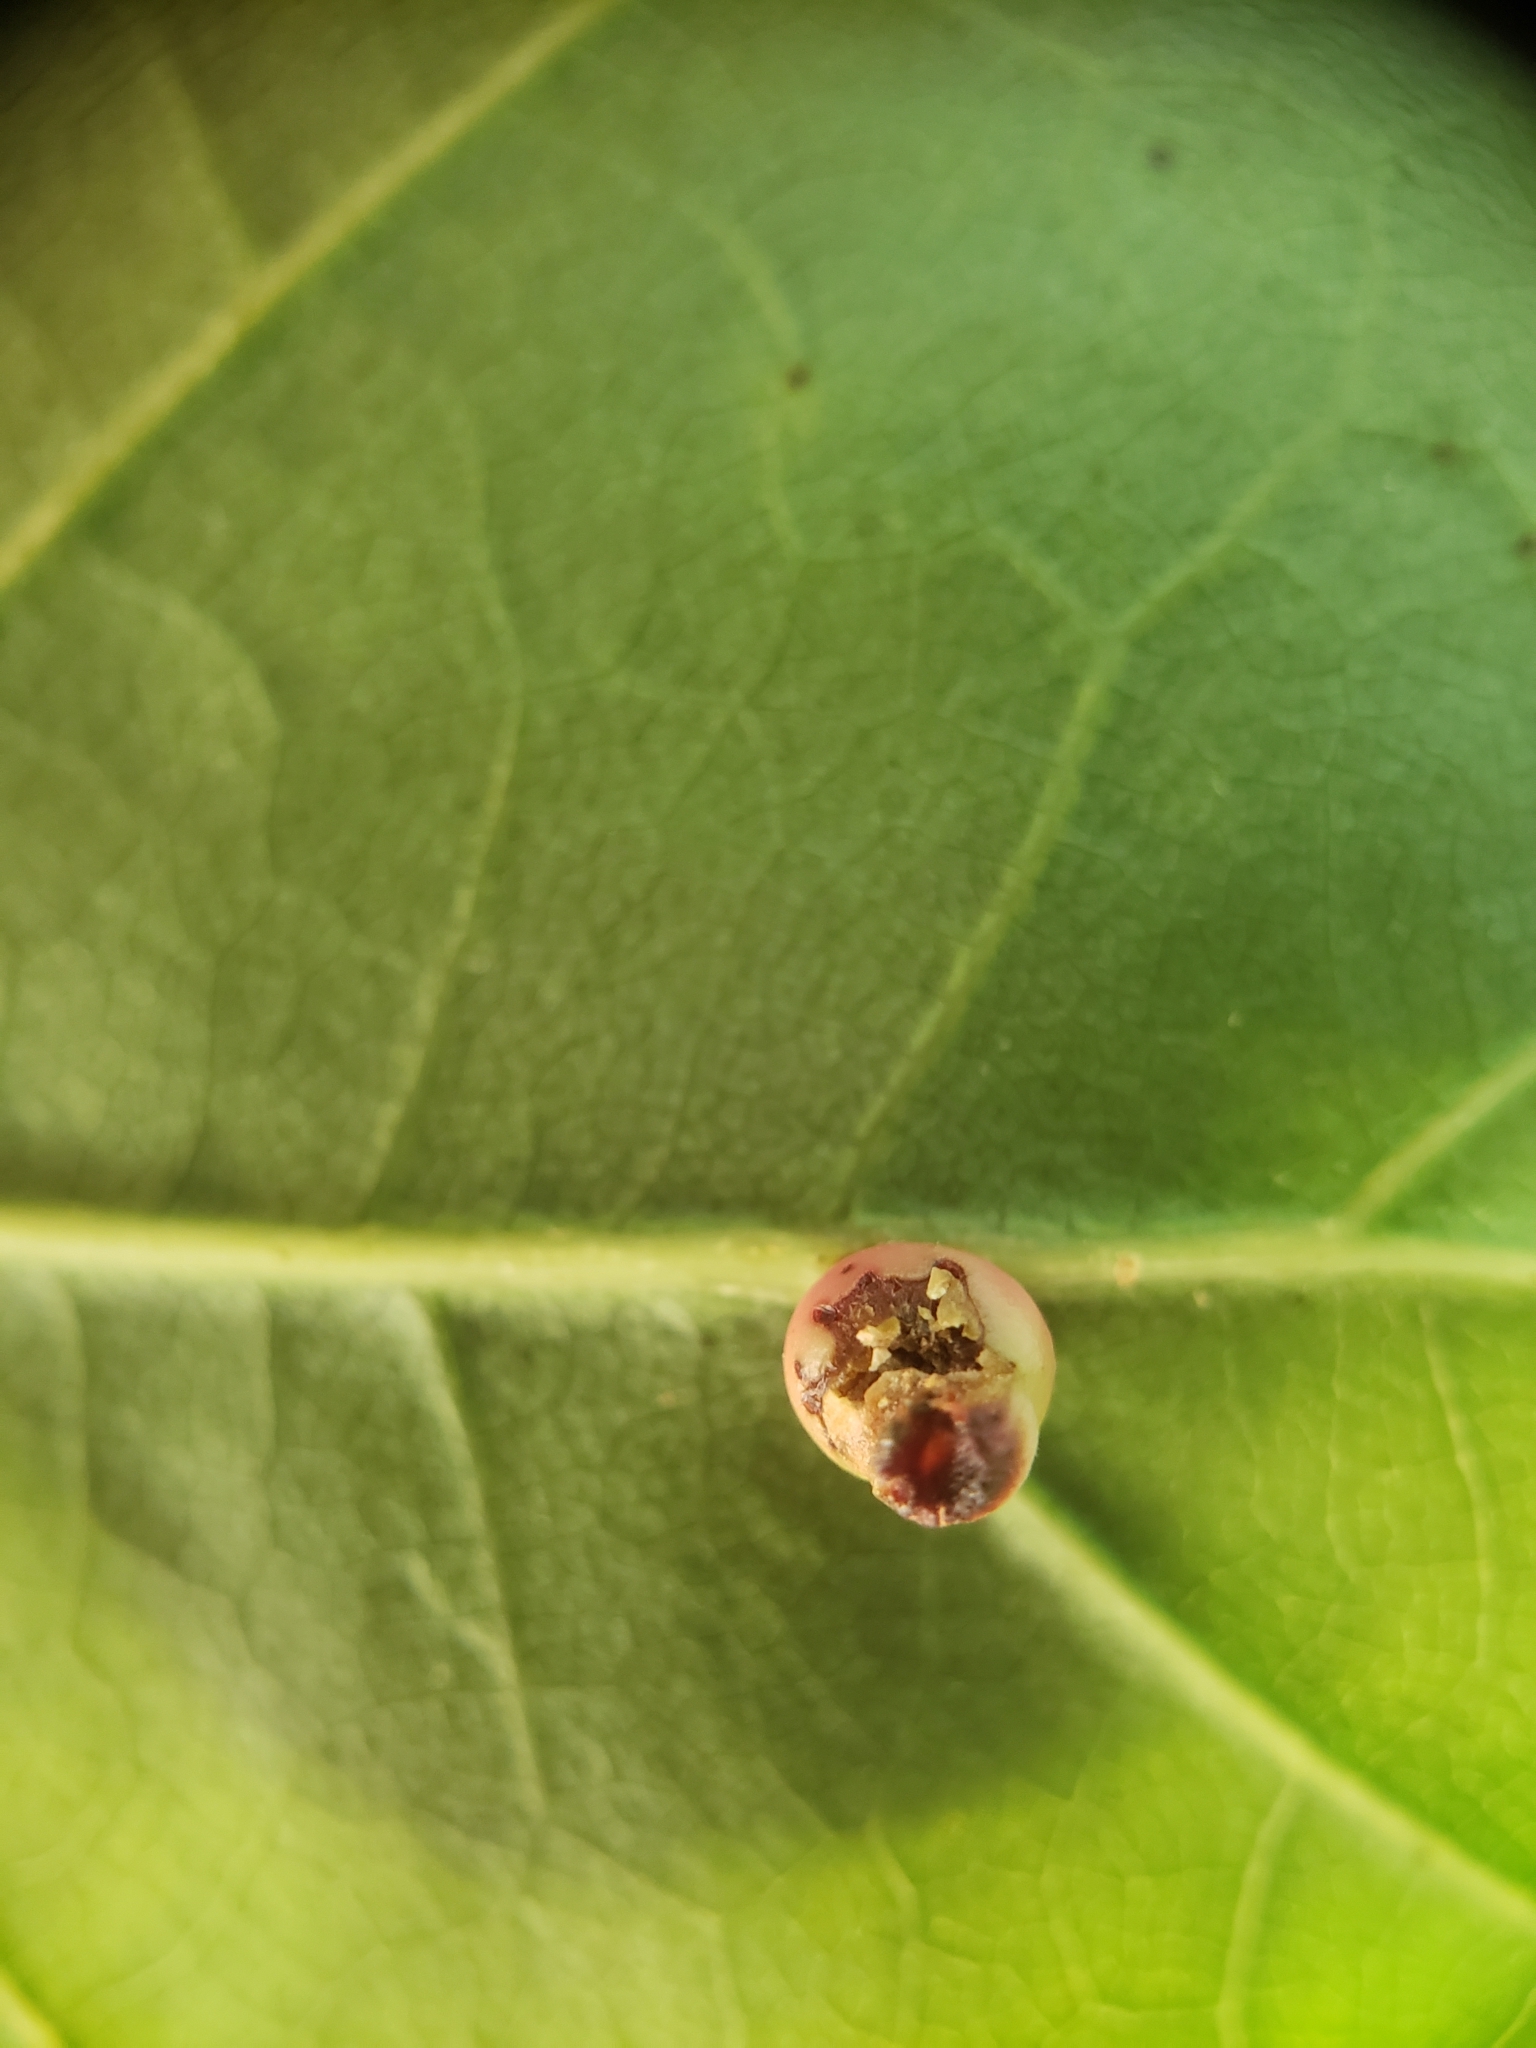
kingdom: Animalia
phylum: Arthropoda
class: Insecta
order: Hymenoptera
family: Cynipidae
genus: Kokkocynips
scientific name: Kokkocynips rileyi
